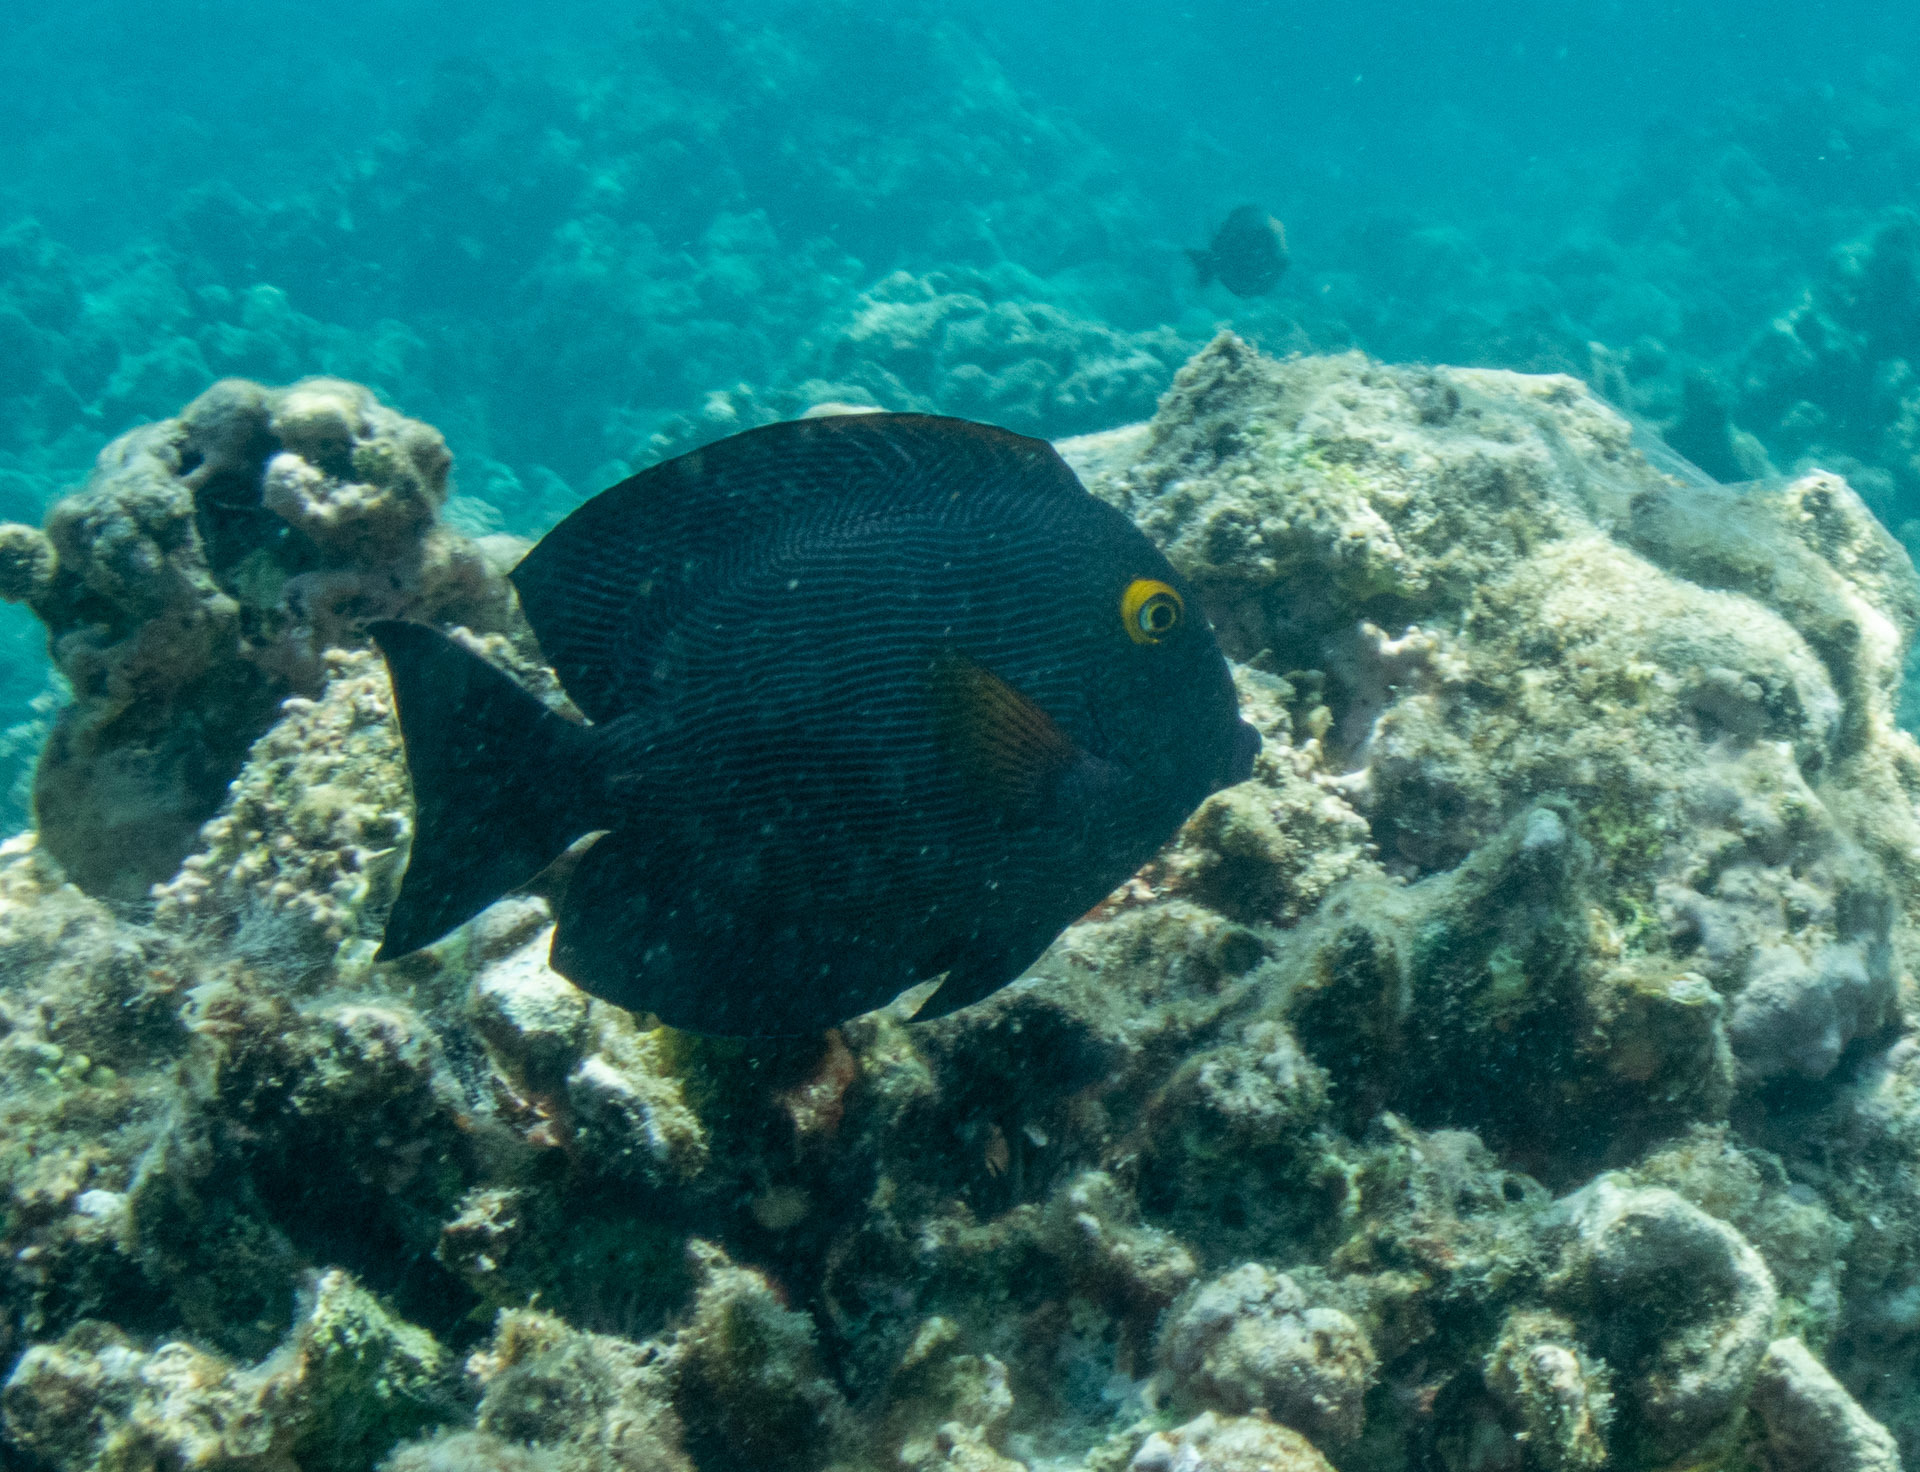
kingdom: Animalia
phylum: Chordata
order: Perciformes
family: Acanthuridae
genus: Ctenochaetus
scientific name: Ctenochaetus strigosus
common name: Bristletoothed surgeonfish
